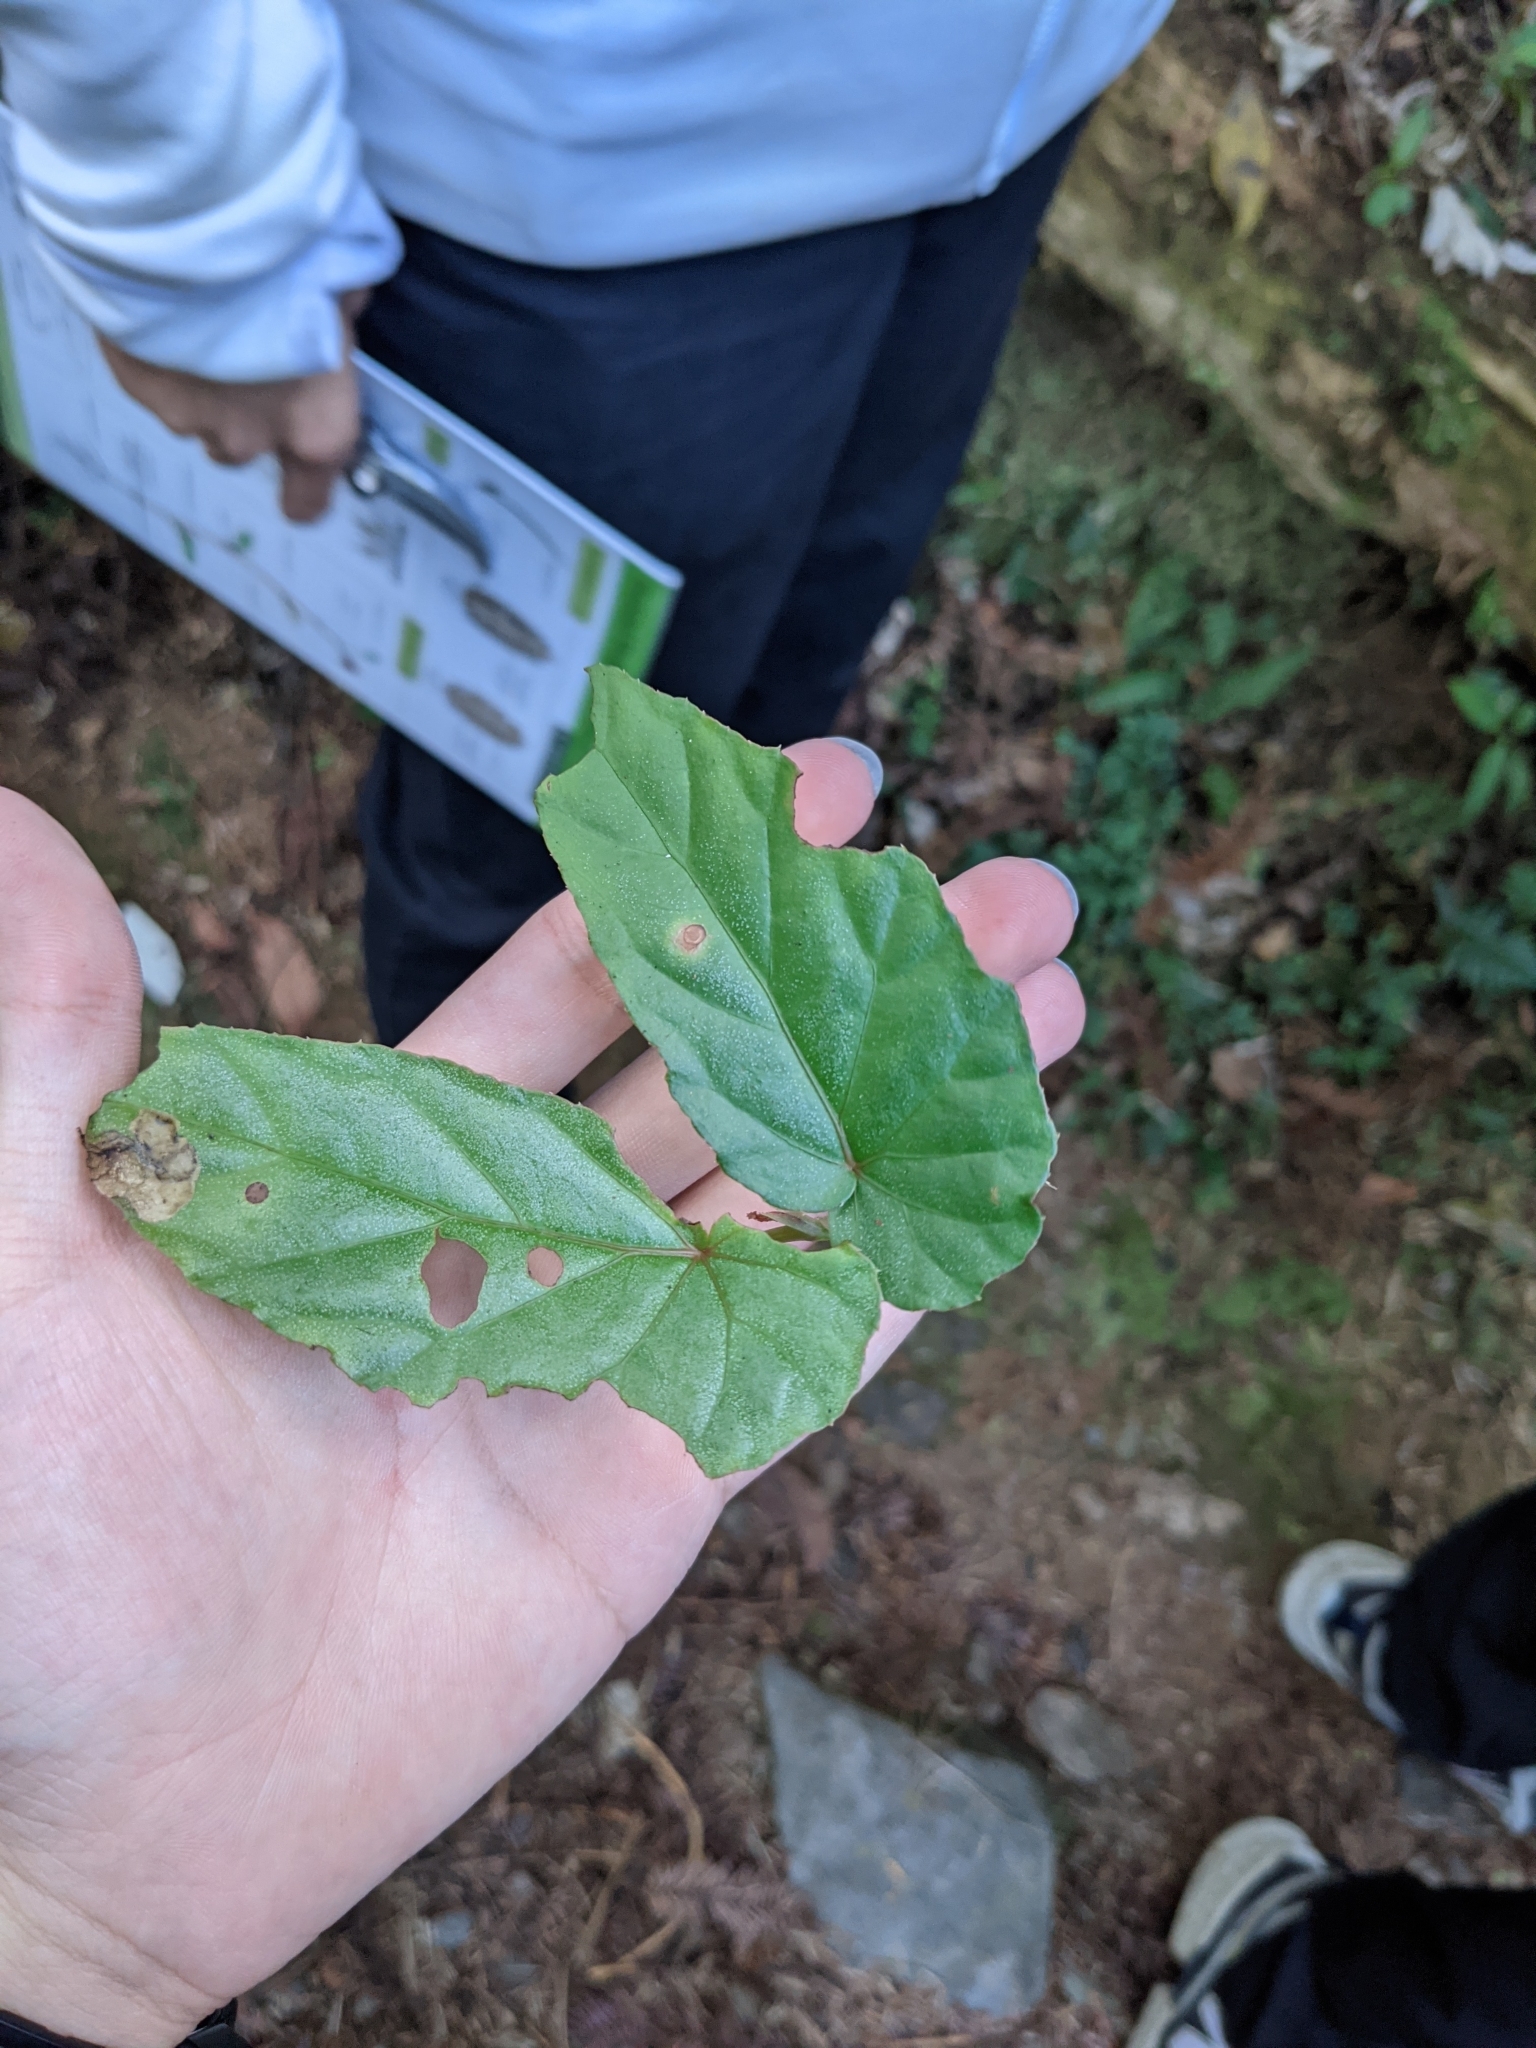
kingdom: Plantae
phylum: Tracheophyta
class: Magnoliopsida
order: Cucurbitales
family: Begoniaceae
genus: Begonia
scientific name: Begonia longifolia
